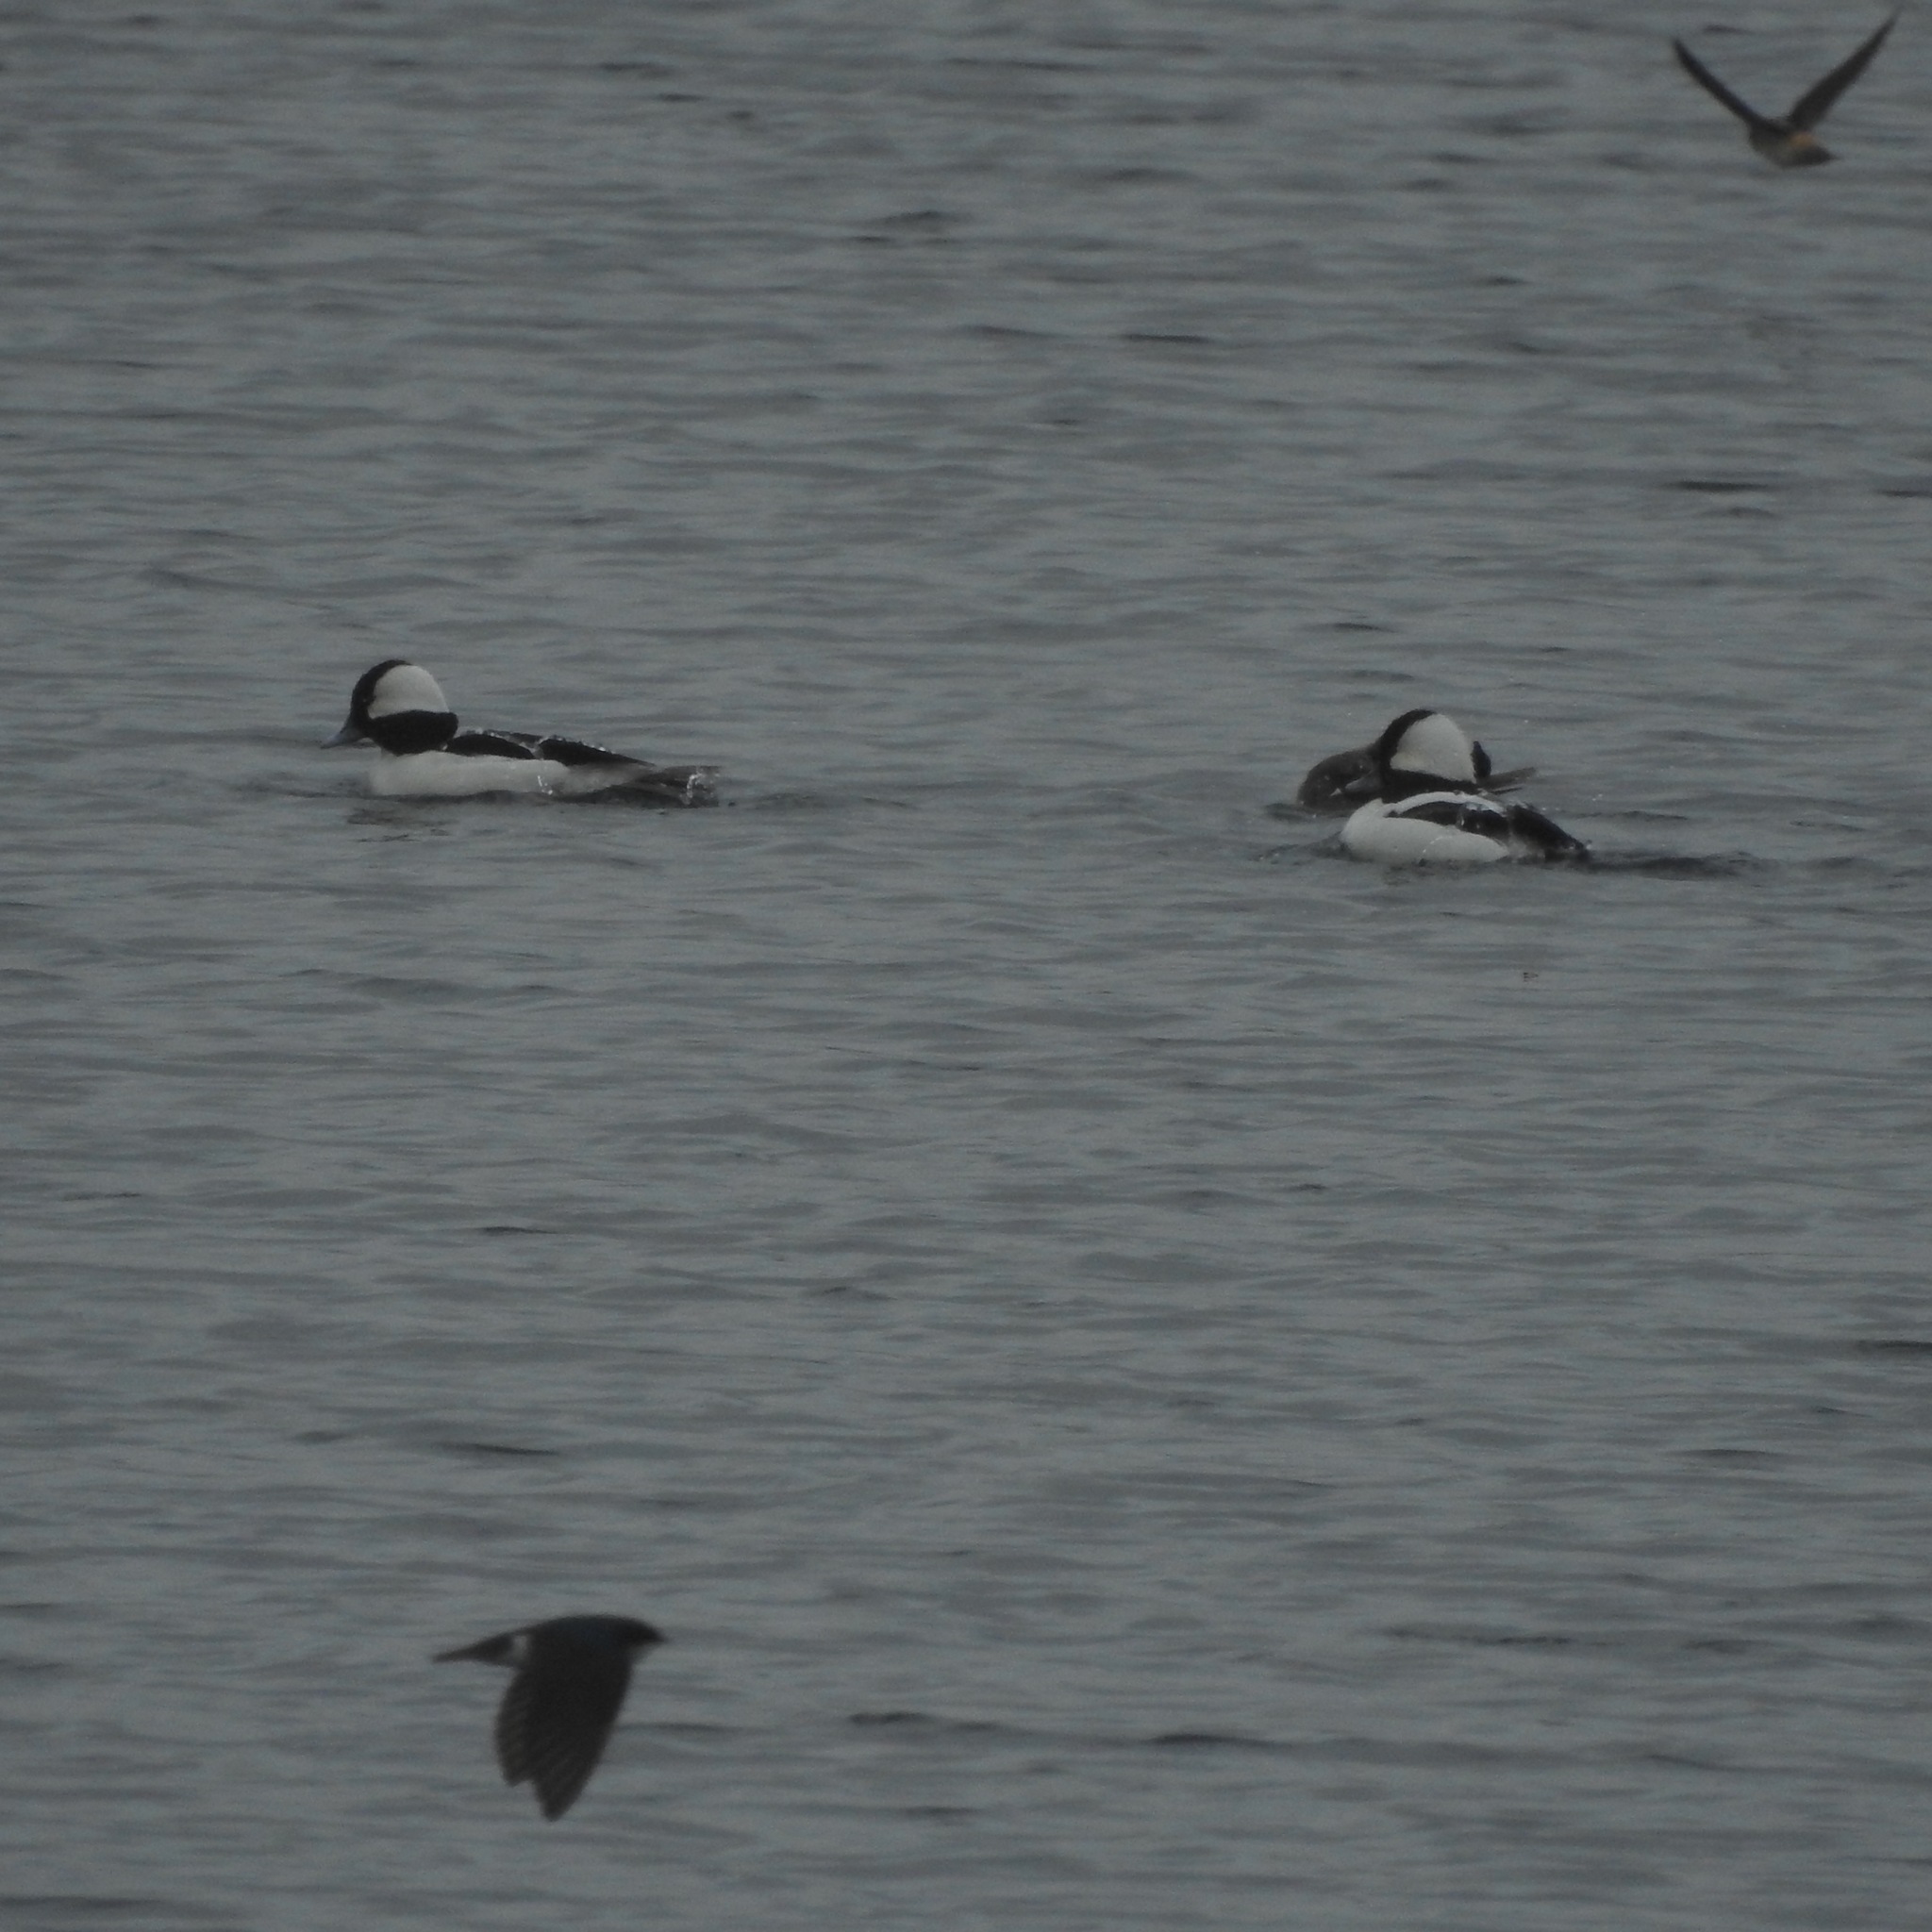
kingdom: Animalia
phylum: Chordata
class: Aves
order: Anseriformes
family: Anatidae
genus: Bucephala
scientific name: Bucephala albeola
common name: Bufflehead
